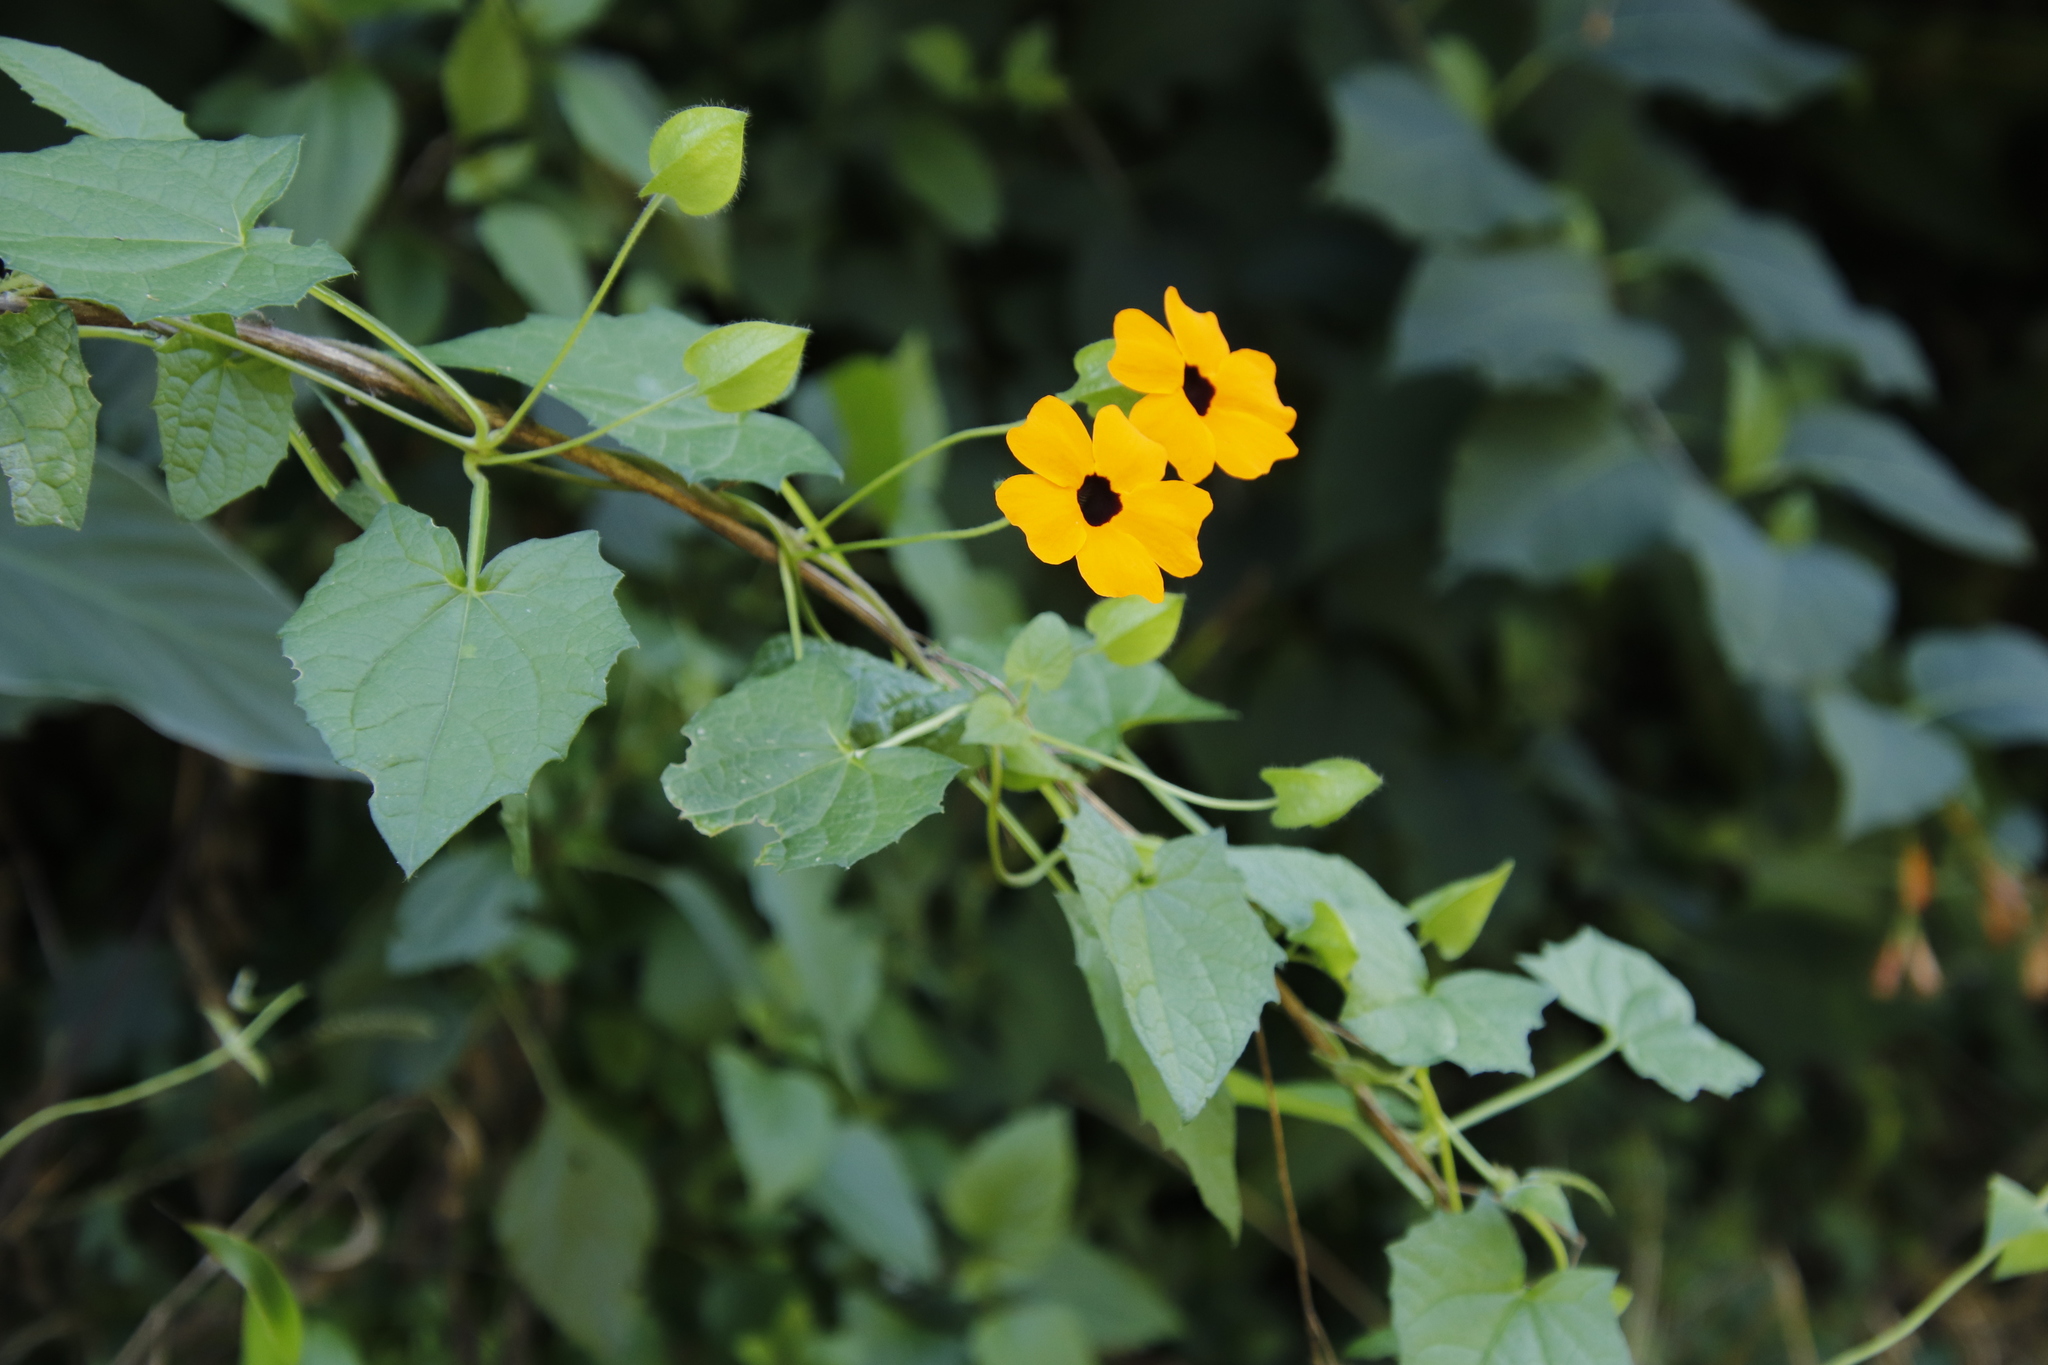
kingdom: Plantae
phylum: Tracheophyta
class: Magnoliopsida
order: Lamiales
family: Acanthaceae
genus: Thunbergia
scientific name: Thunbergia alata
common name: Blackeyed susan vine
